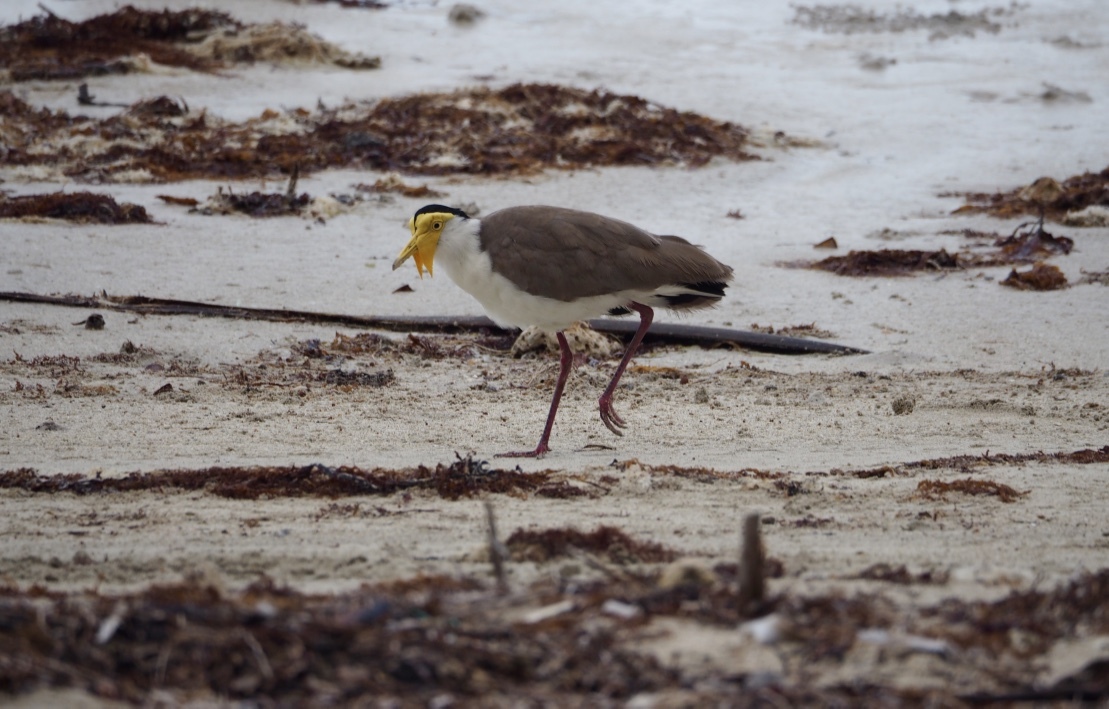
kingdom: Animalia
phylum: Chordata
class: Aves
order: Charadriiformes
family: Charadriidae
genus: Vanellus
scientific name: Vanellus miles
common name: Masked lapwing
